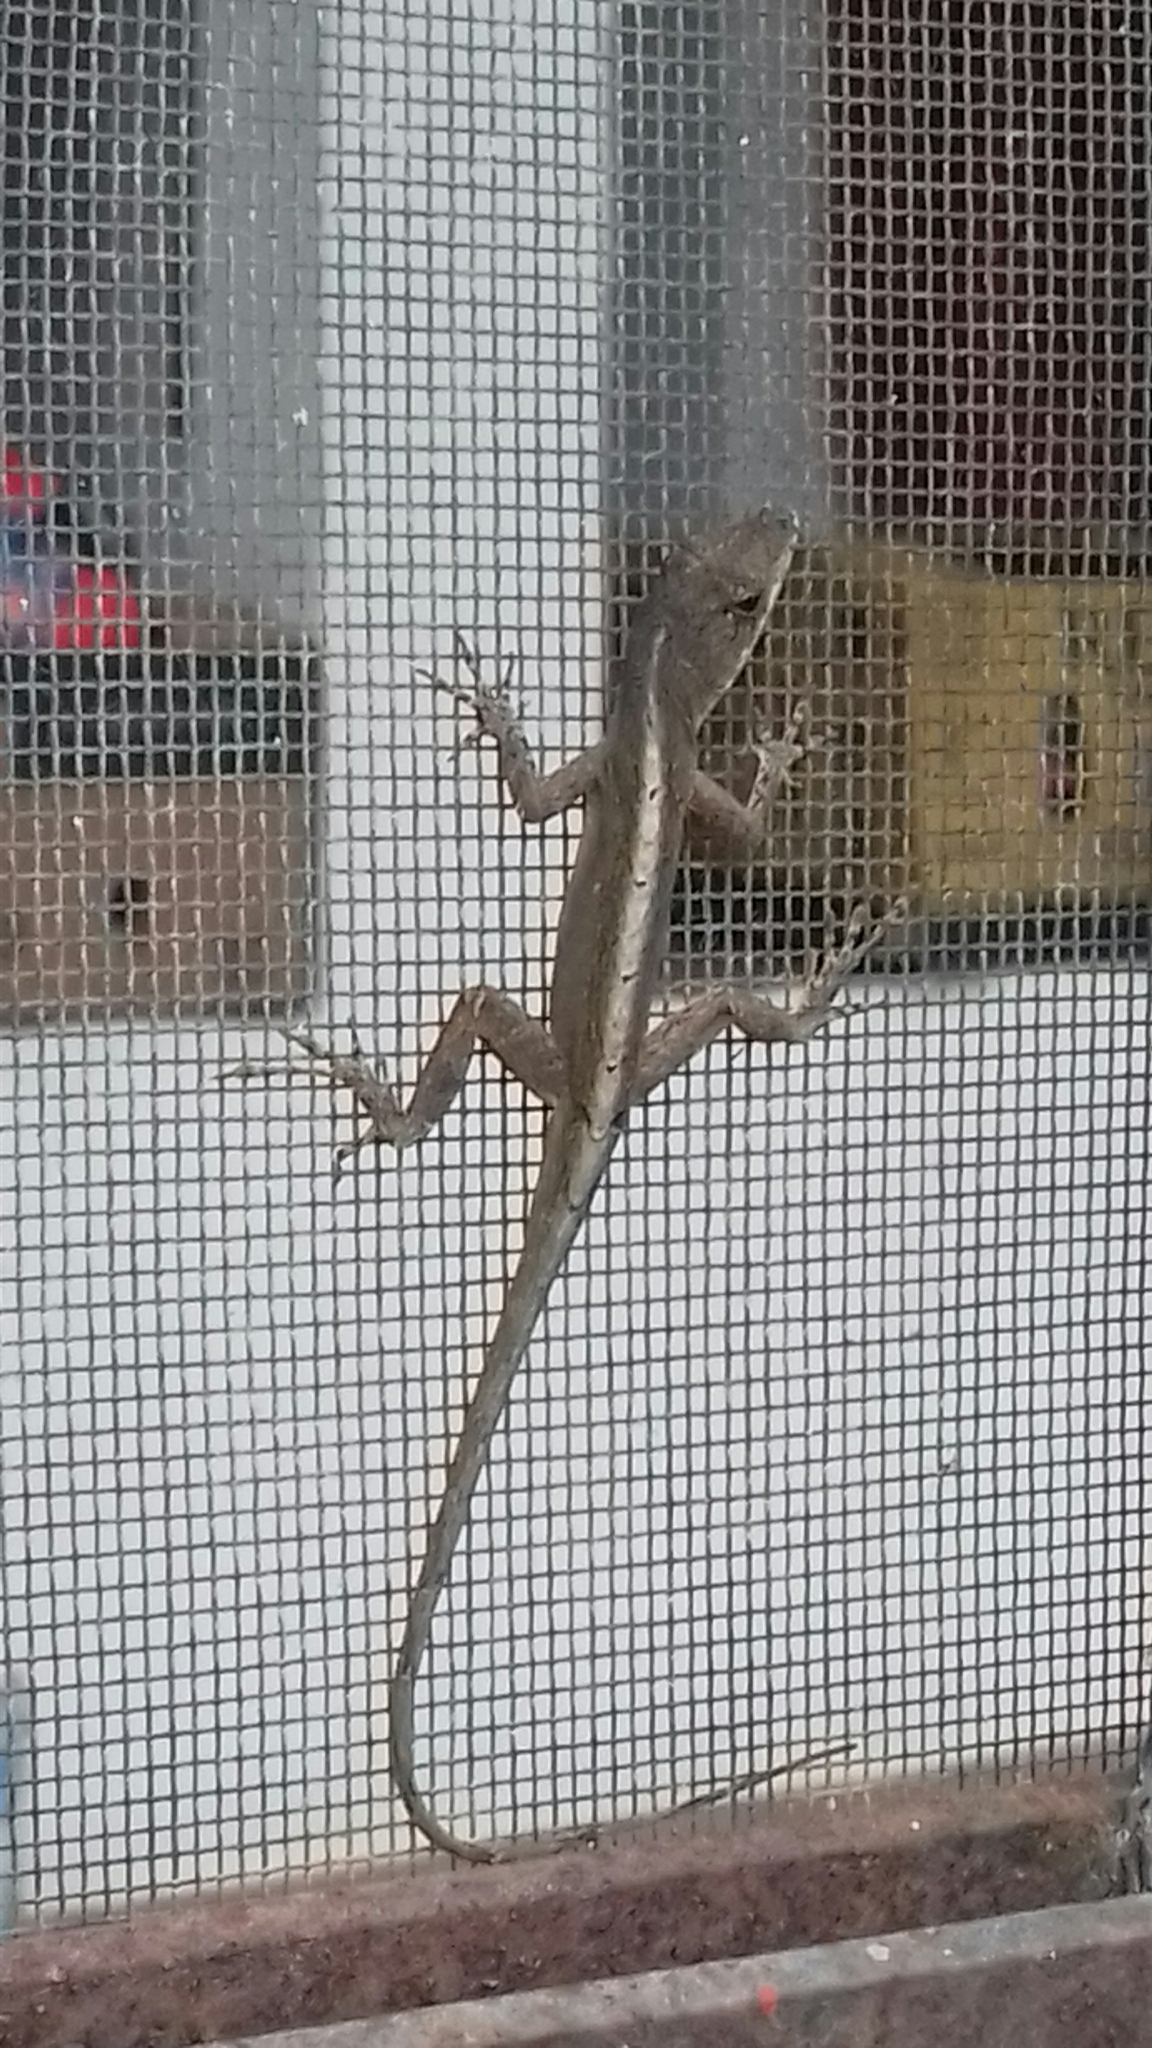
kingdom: Animalia
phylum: Chordata
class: Squamata
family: Dactyloidae
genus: Anolis
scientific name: Anolis sagrei
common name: Brown anole
